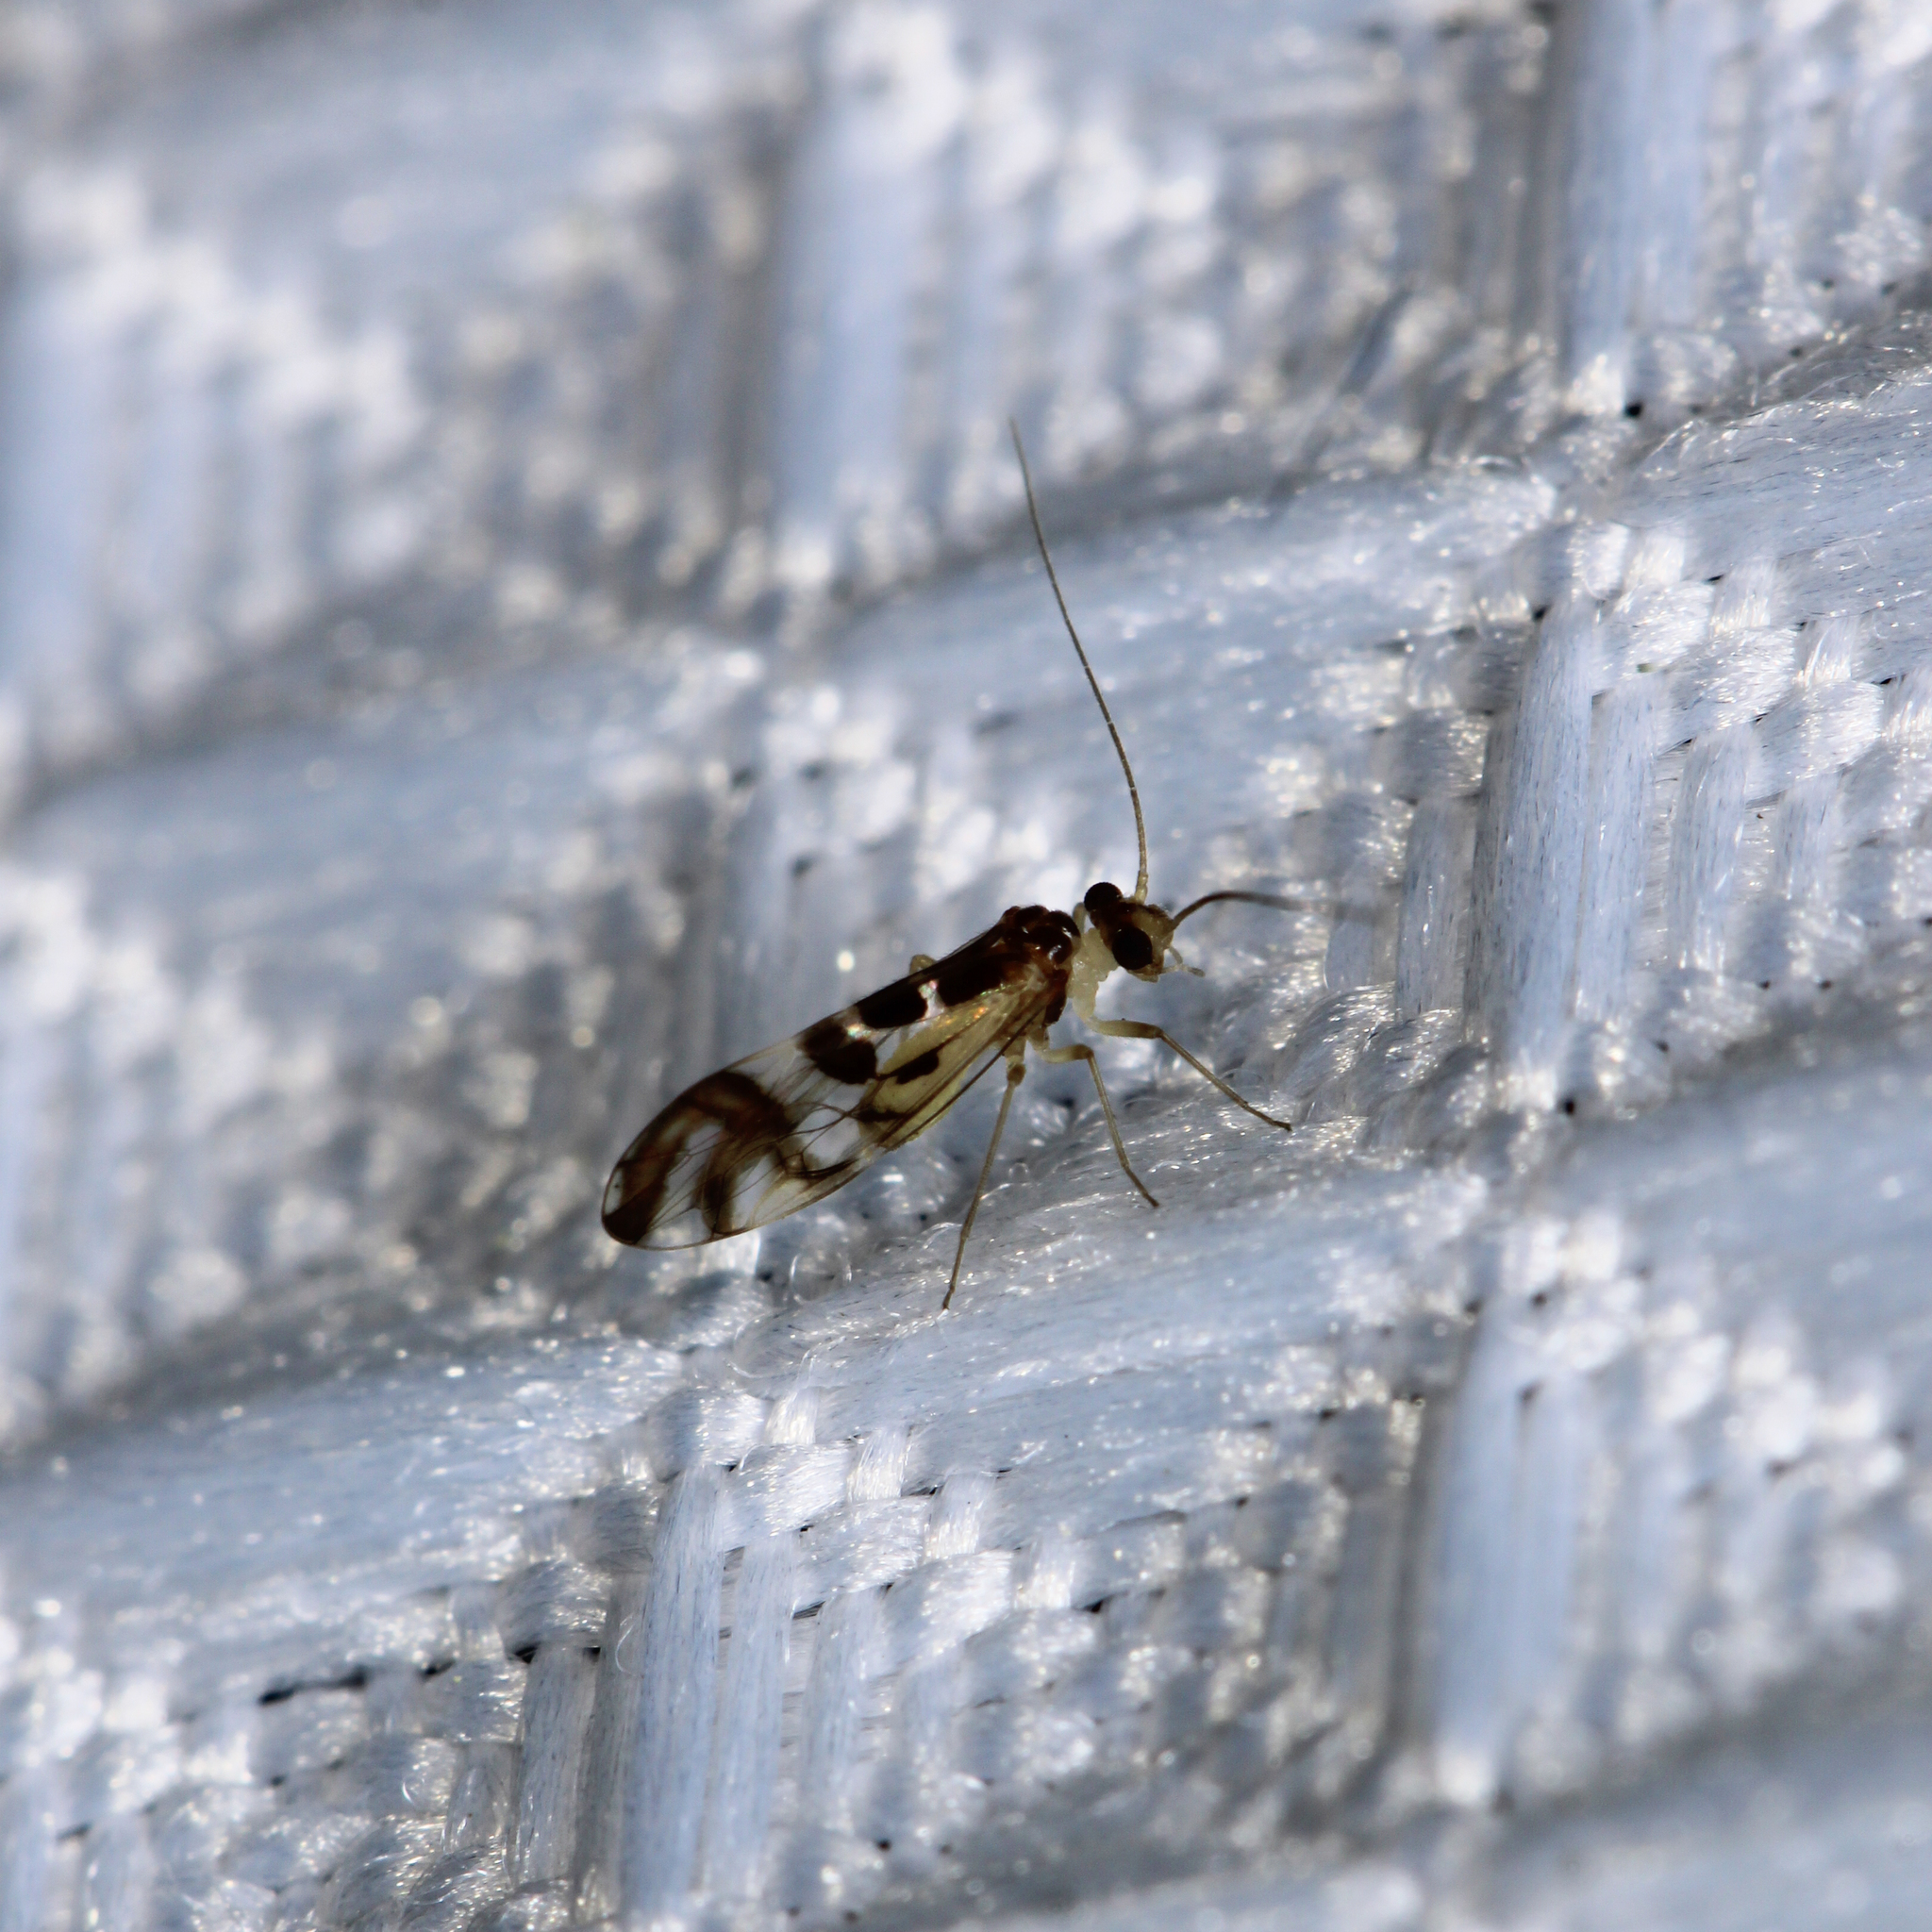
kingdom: Animalia
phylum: Arthropoda
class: Insecta
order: Psocodea
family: Stenopsocidae
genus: Graphopsocus
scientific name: Graphopsocus cruciatus
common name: Lizard bark louse
